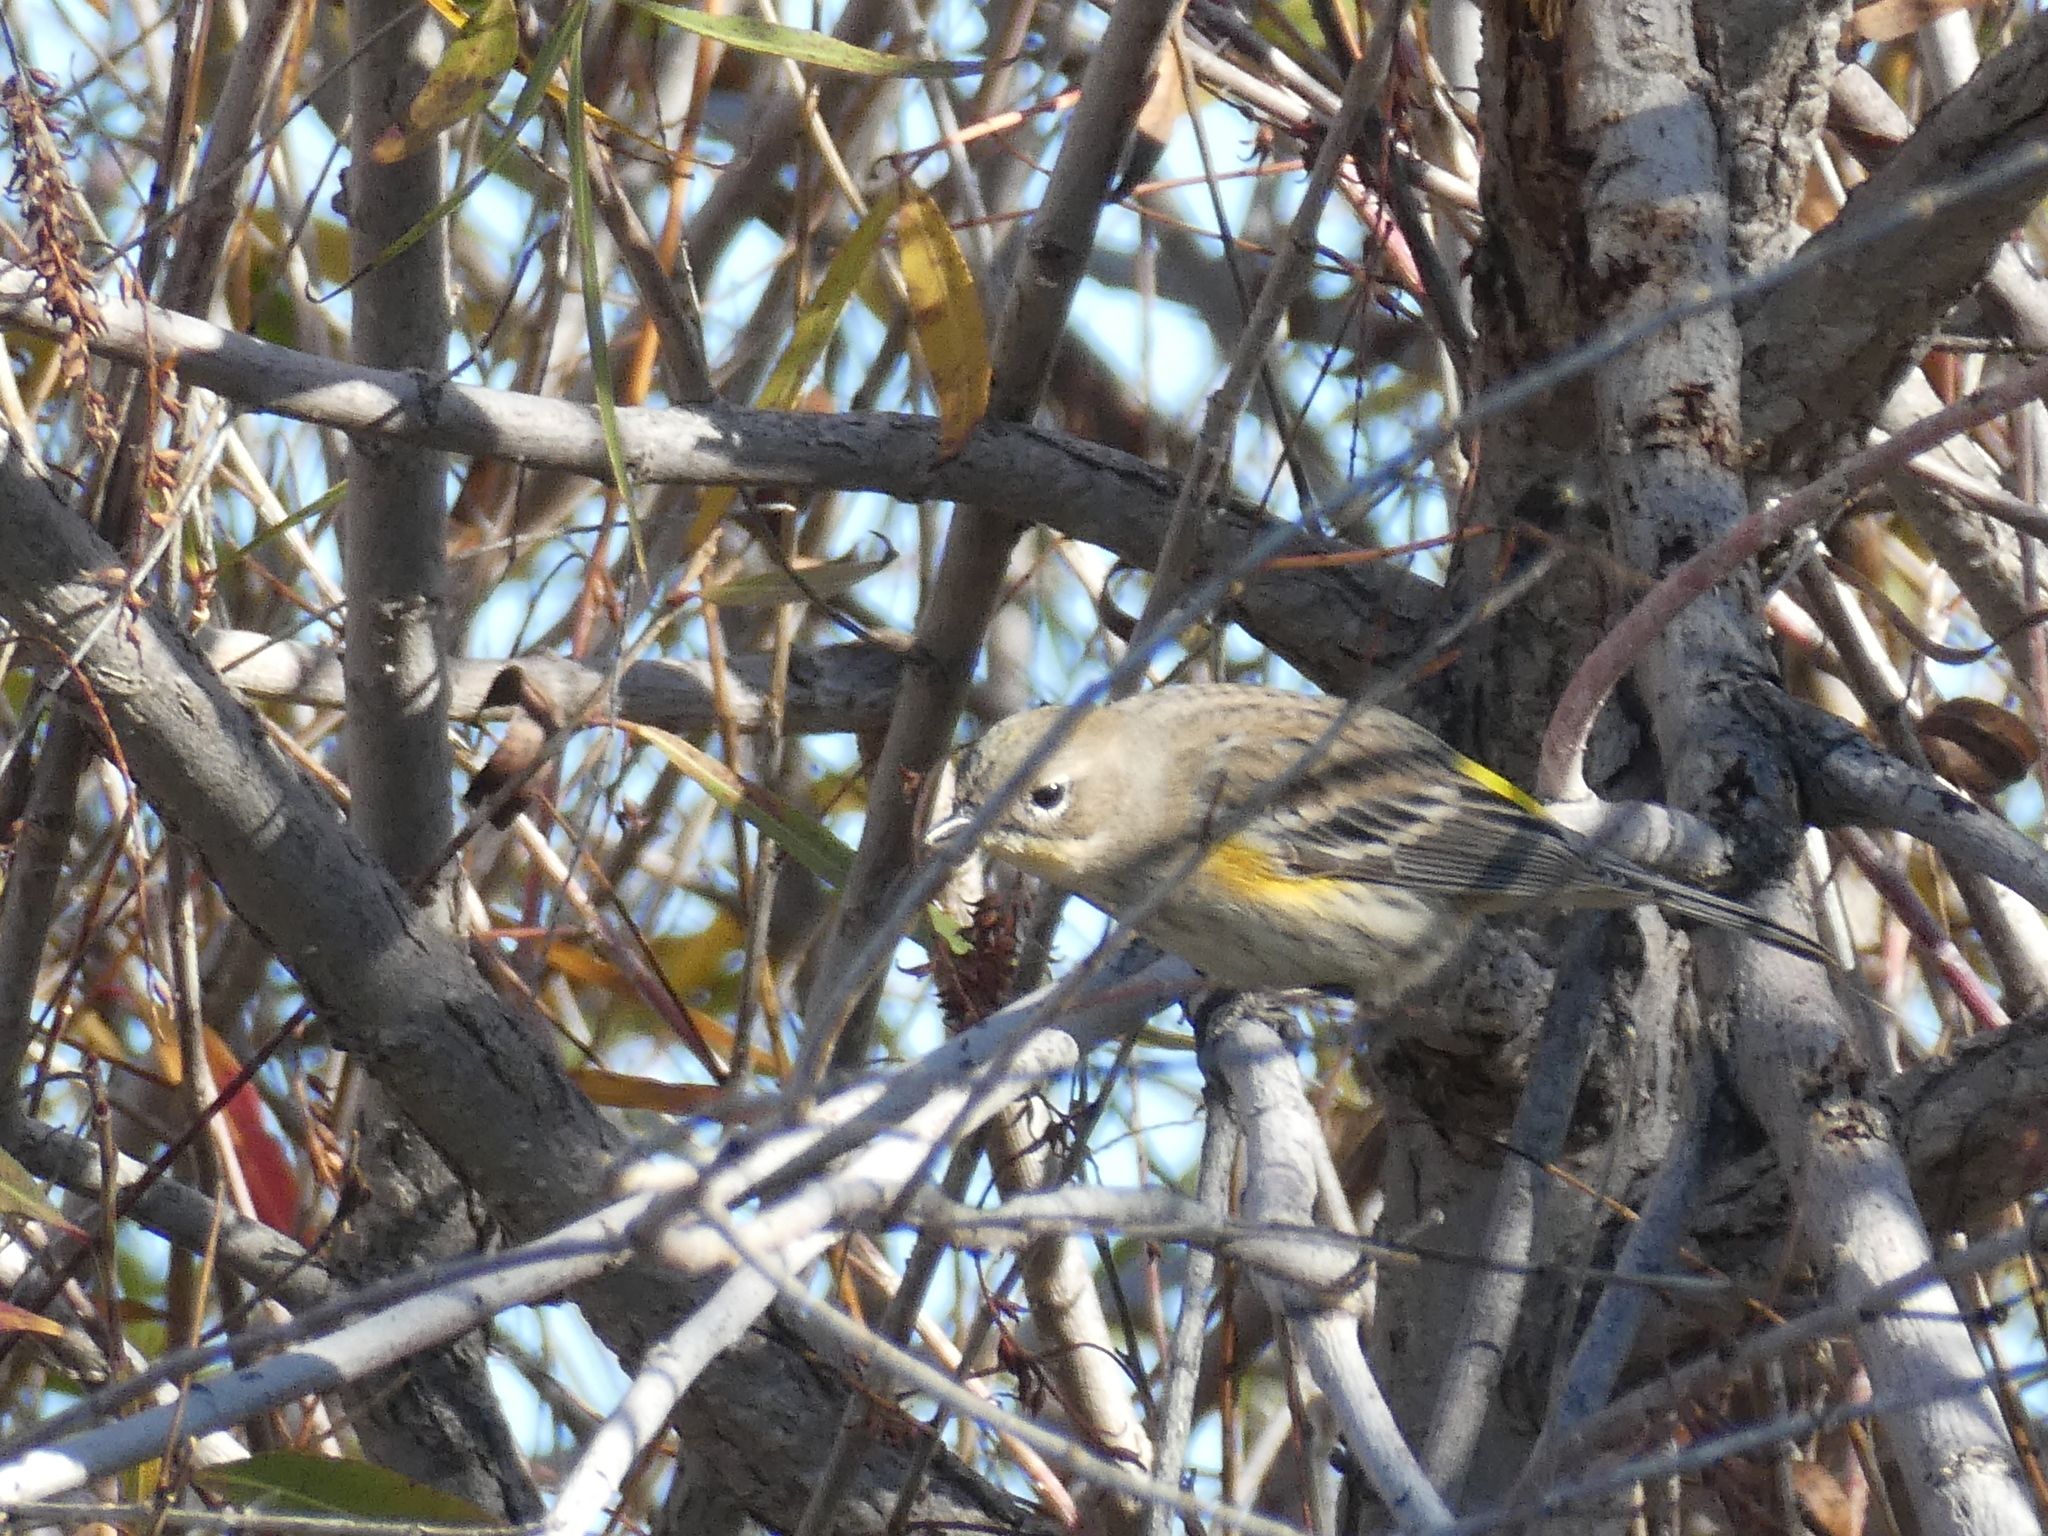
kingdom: Animalia
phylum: Chordata
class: Aves
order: Passeriformes
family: Parulidae
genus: Setophaga
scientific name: Setophaga coronata
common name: Myrtle warbler
